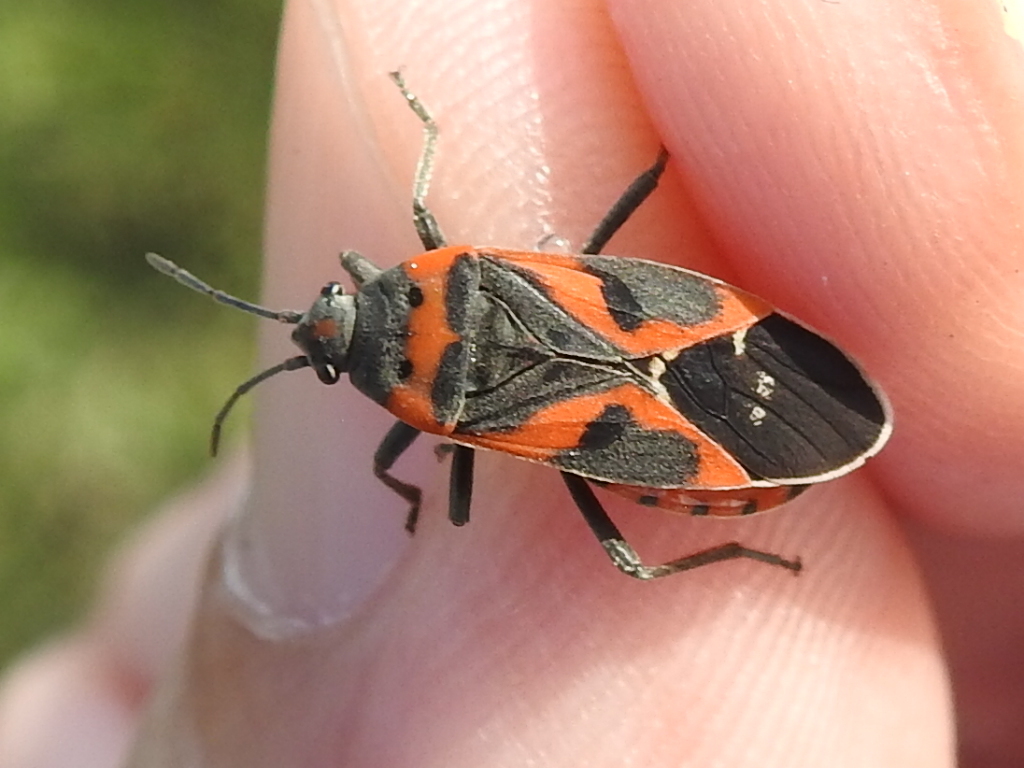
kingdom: Animalia
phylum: Arthropoda
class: Insecta
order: Hemiptera
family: Lygaeidae
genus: Lygaeus
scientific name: Lygaeus kalmii
